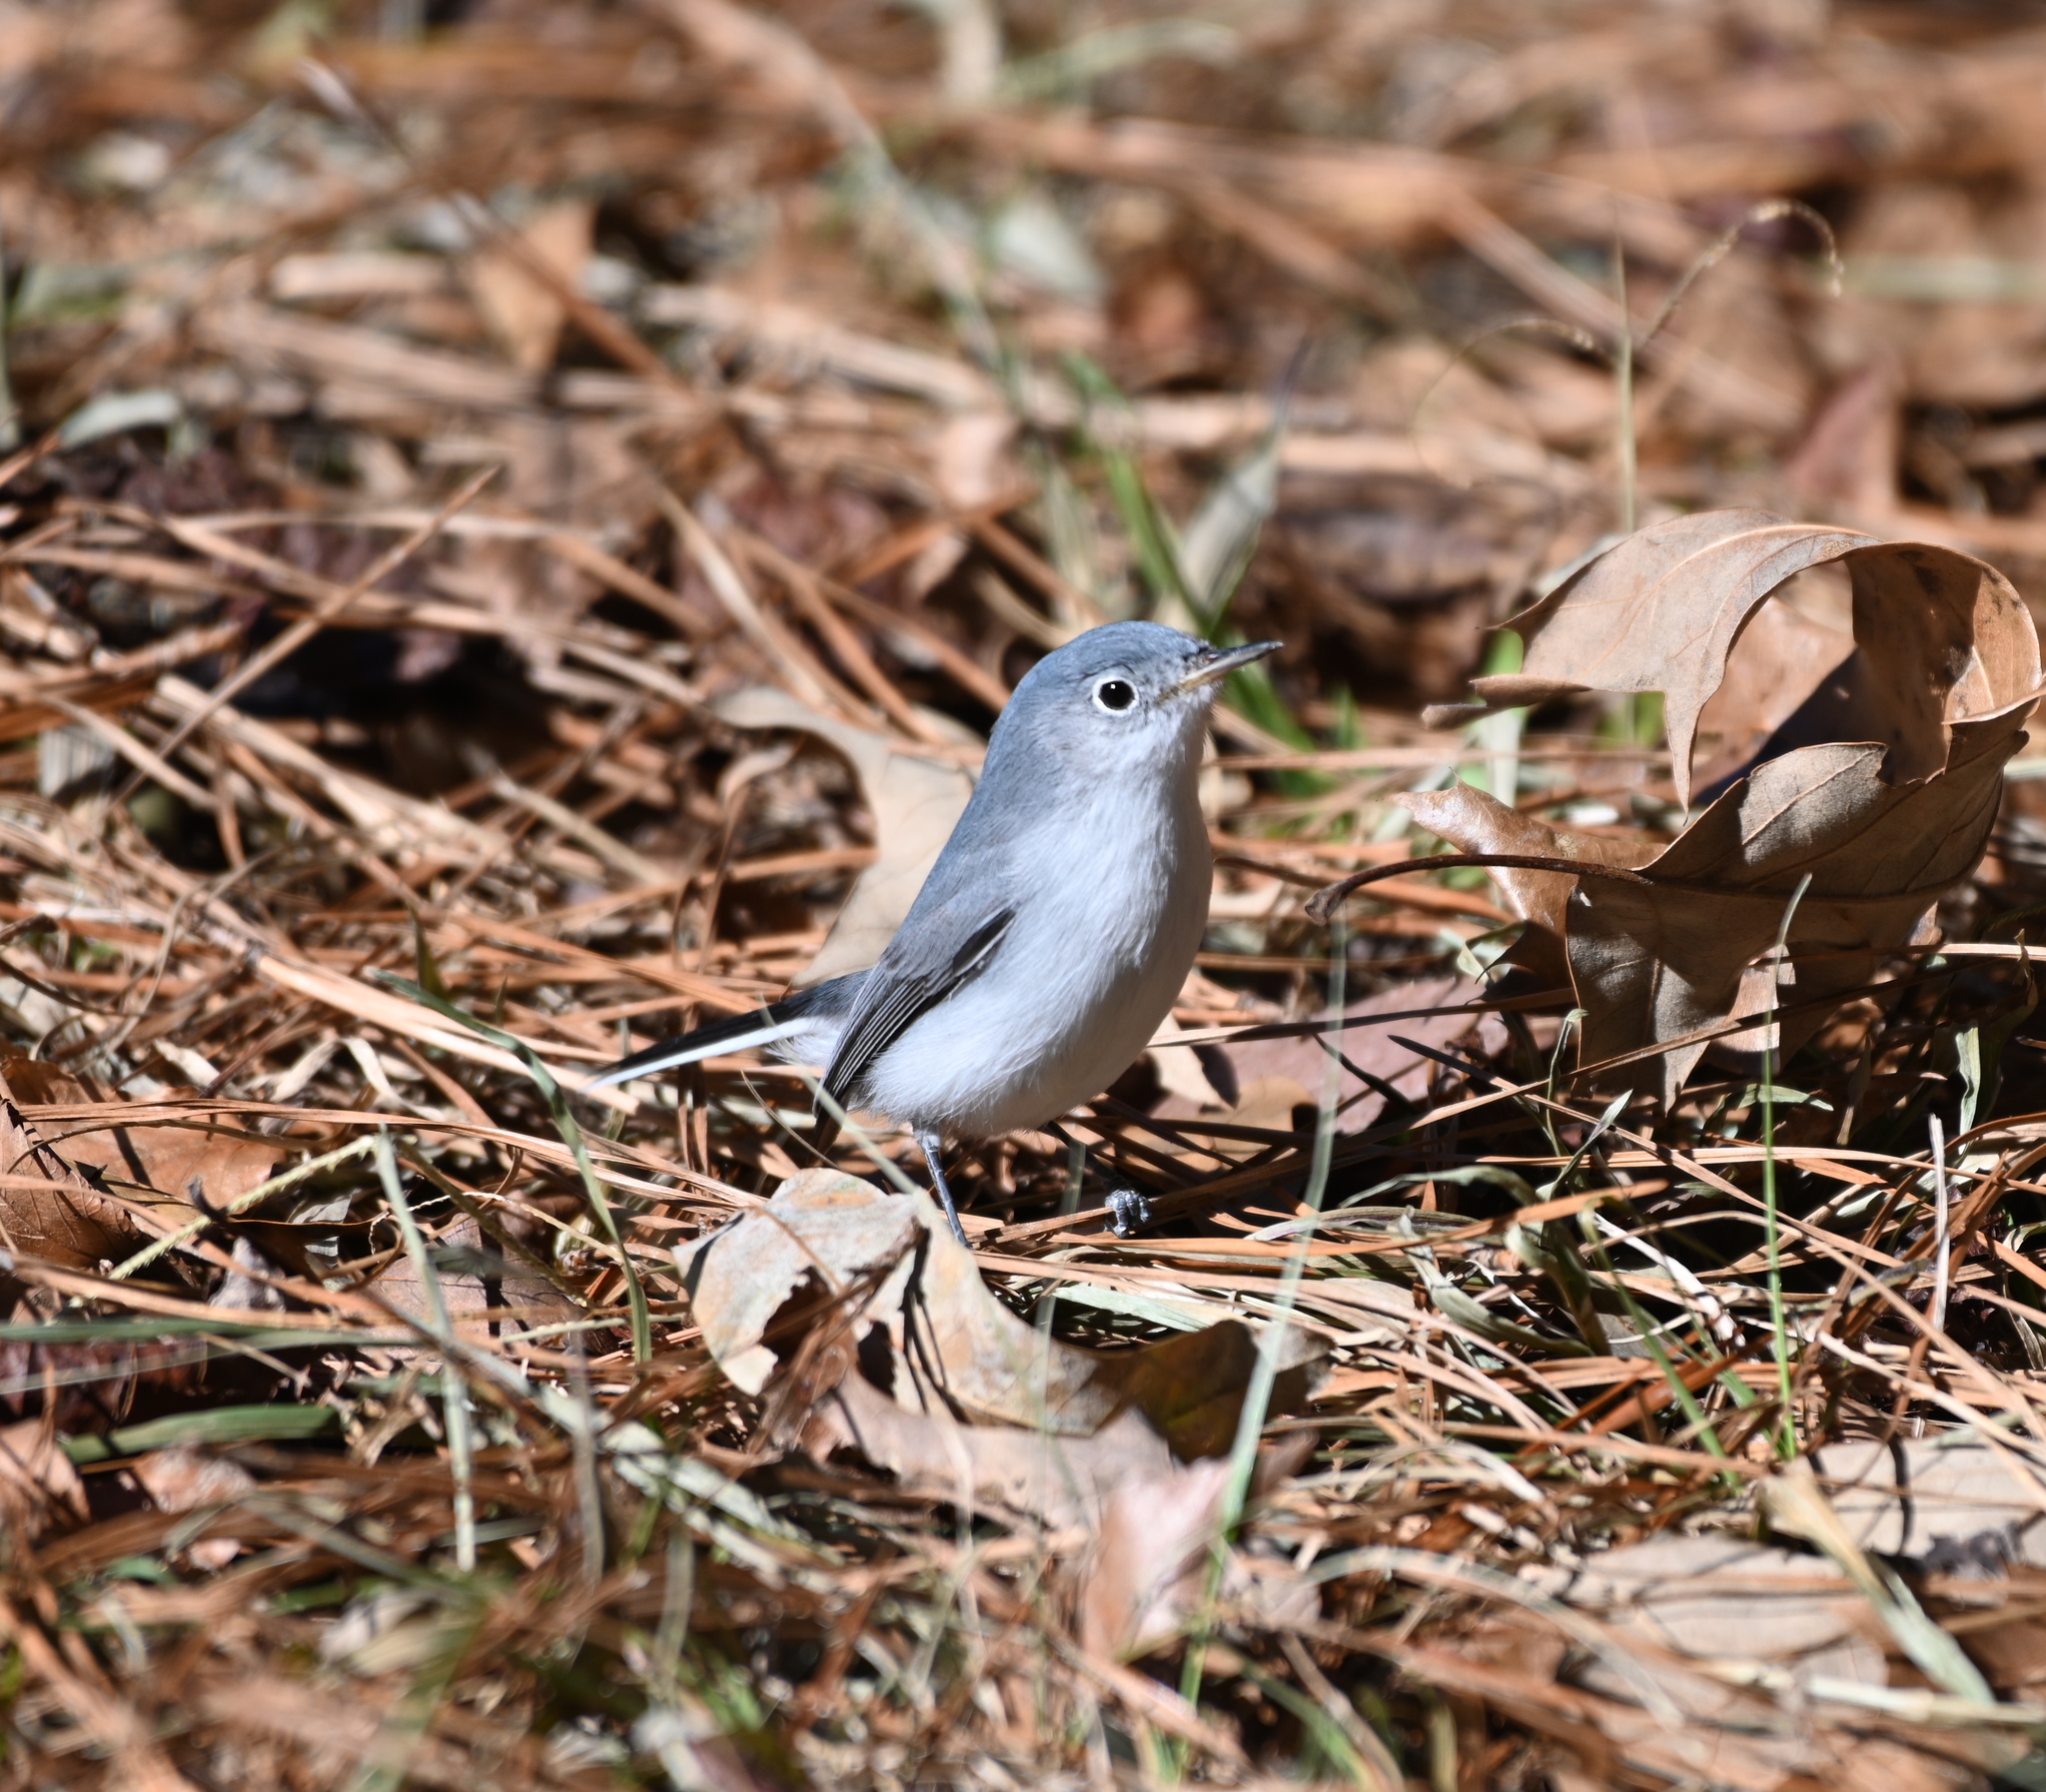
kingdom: Animalia
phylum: Chordata
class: Aves
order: Passeriformes
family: Polioptilidae
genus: Polioptila
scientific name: Polioptila caerulea
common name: Blue-gray gnatcatcher
